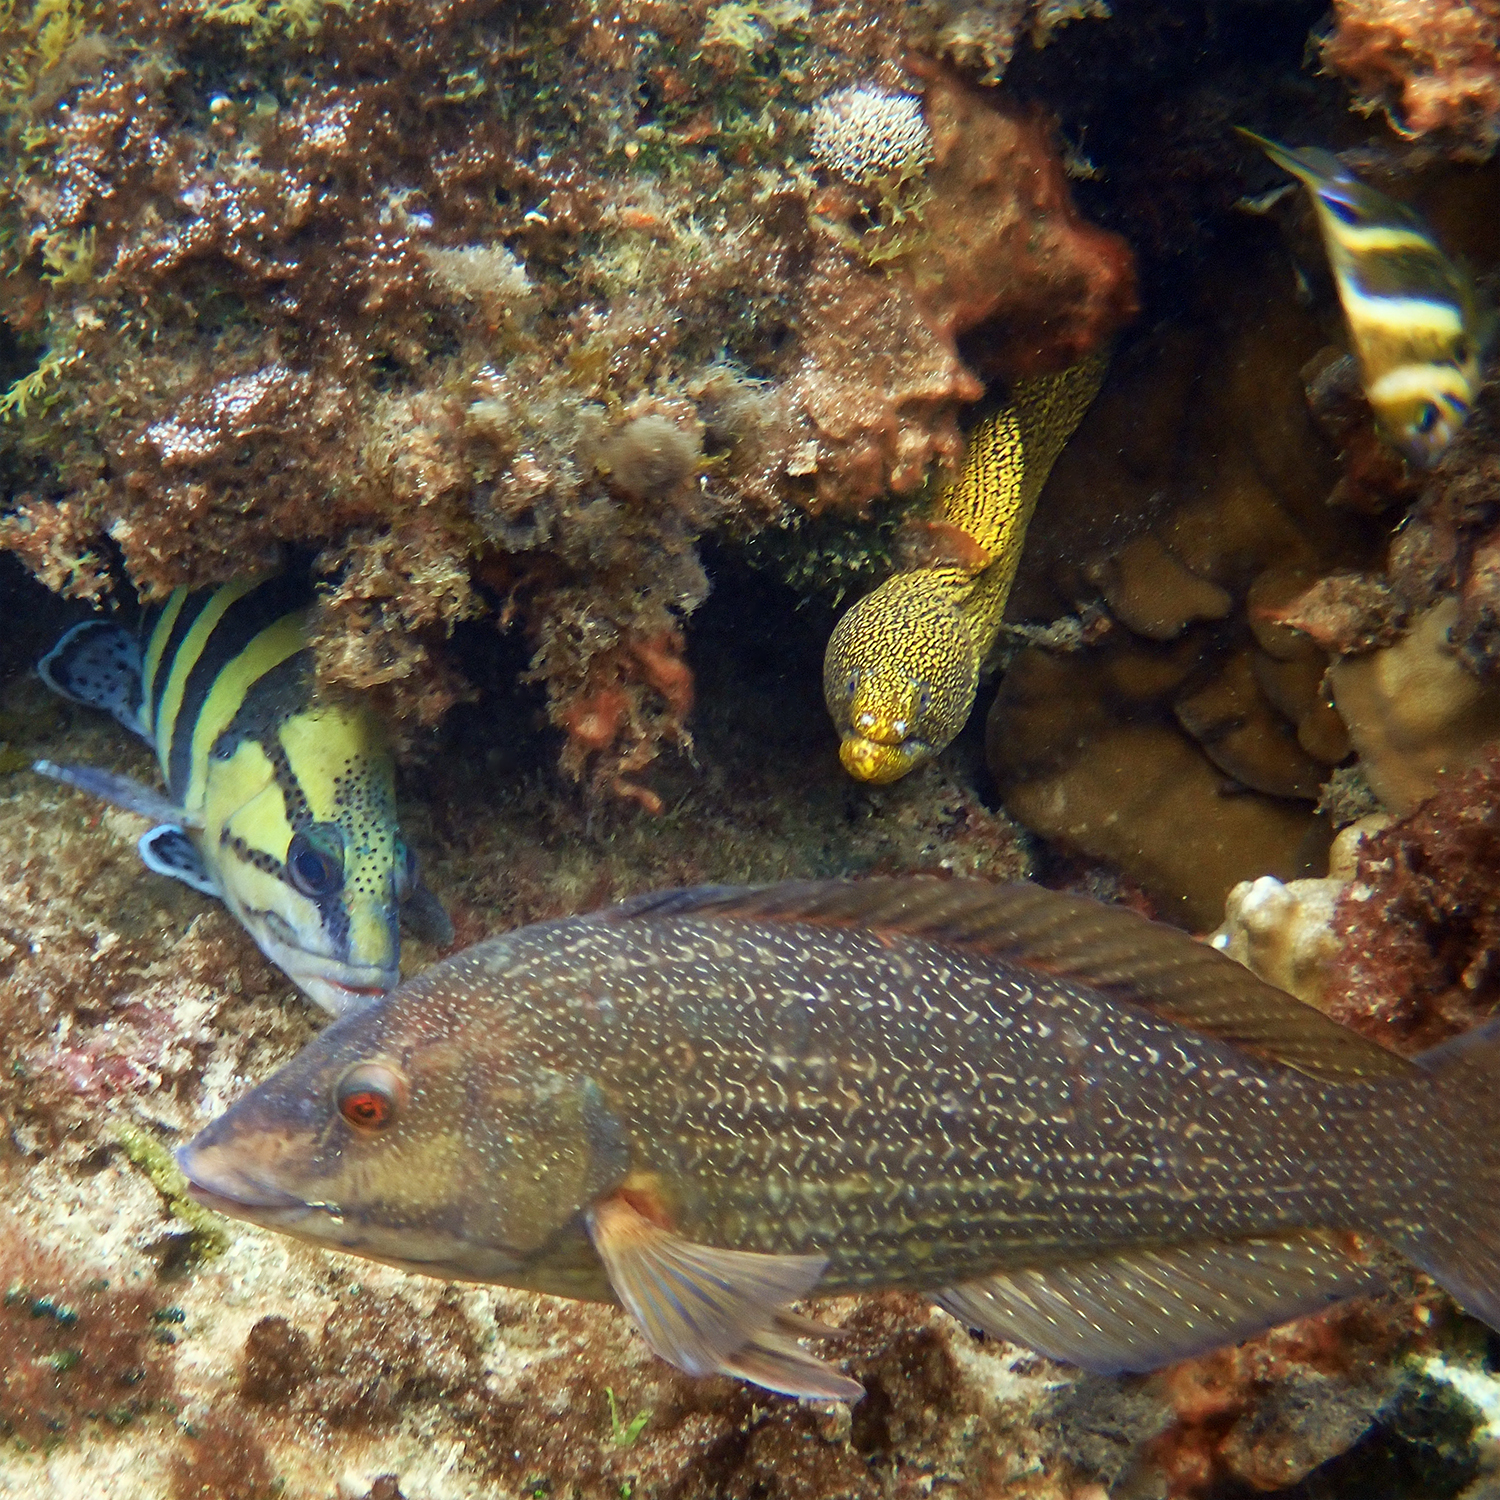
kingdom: Animalia
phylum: Chordata
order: Perciformes
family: Labridae
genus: Notolabrus
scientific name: Notolabrus inscriptus
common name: Green wrasse
